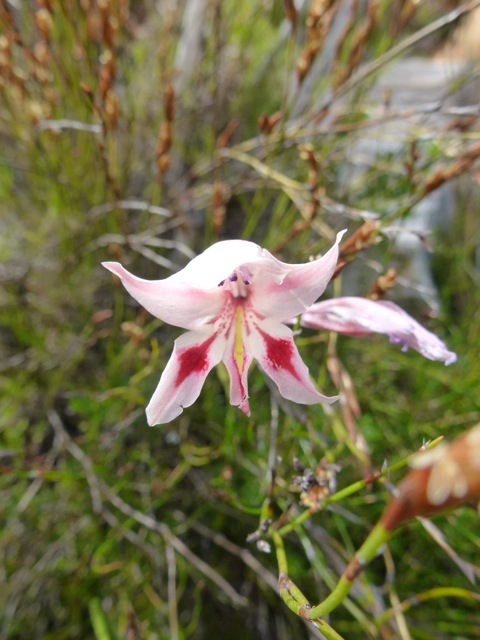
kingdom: Plantae
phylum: Tracheophyta
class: Liliopsida
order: Asparagales
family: Iridaceae
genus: Gladiolus
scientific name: Gladiolus nigromontanus
